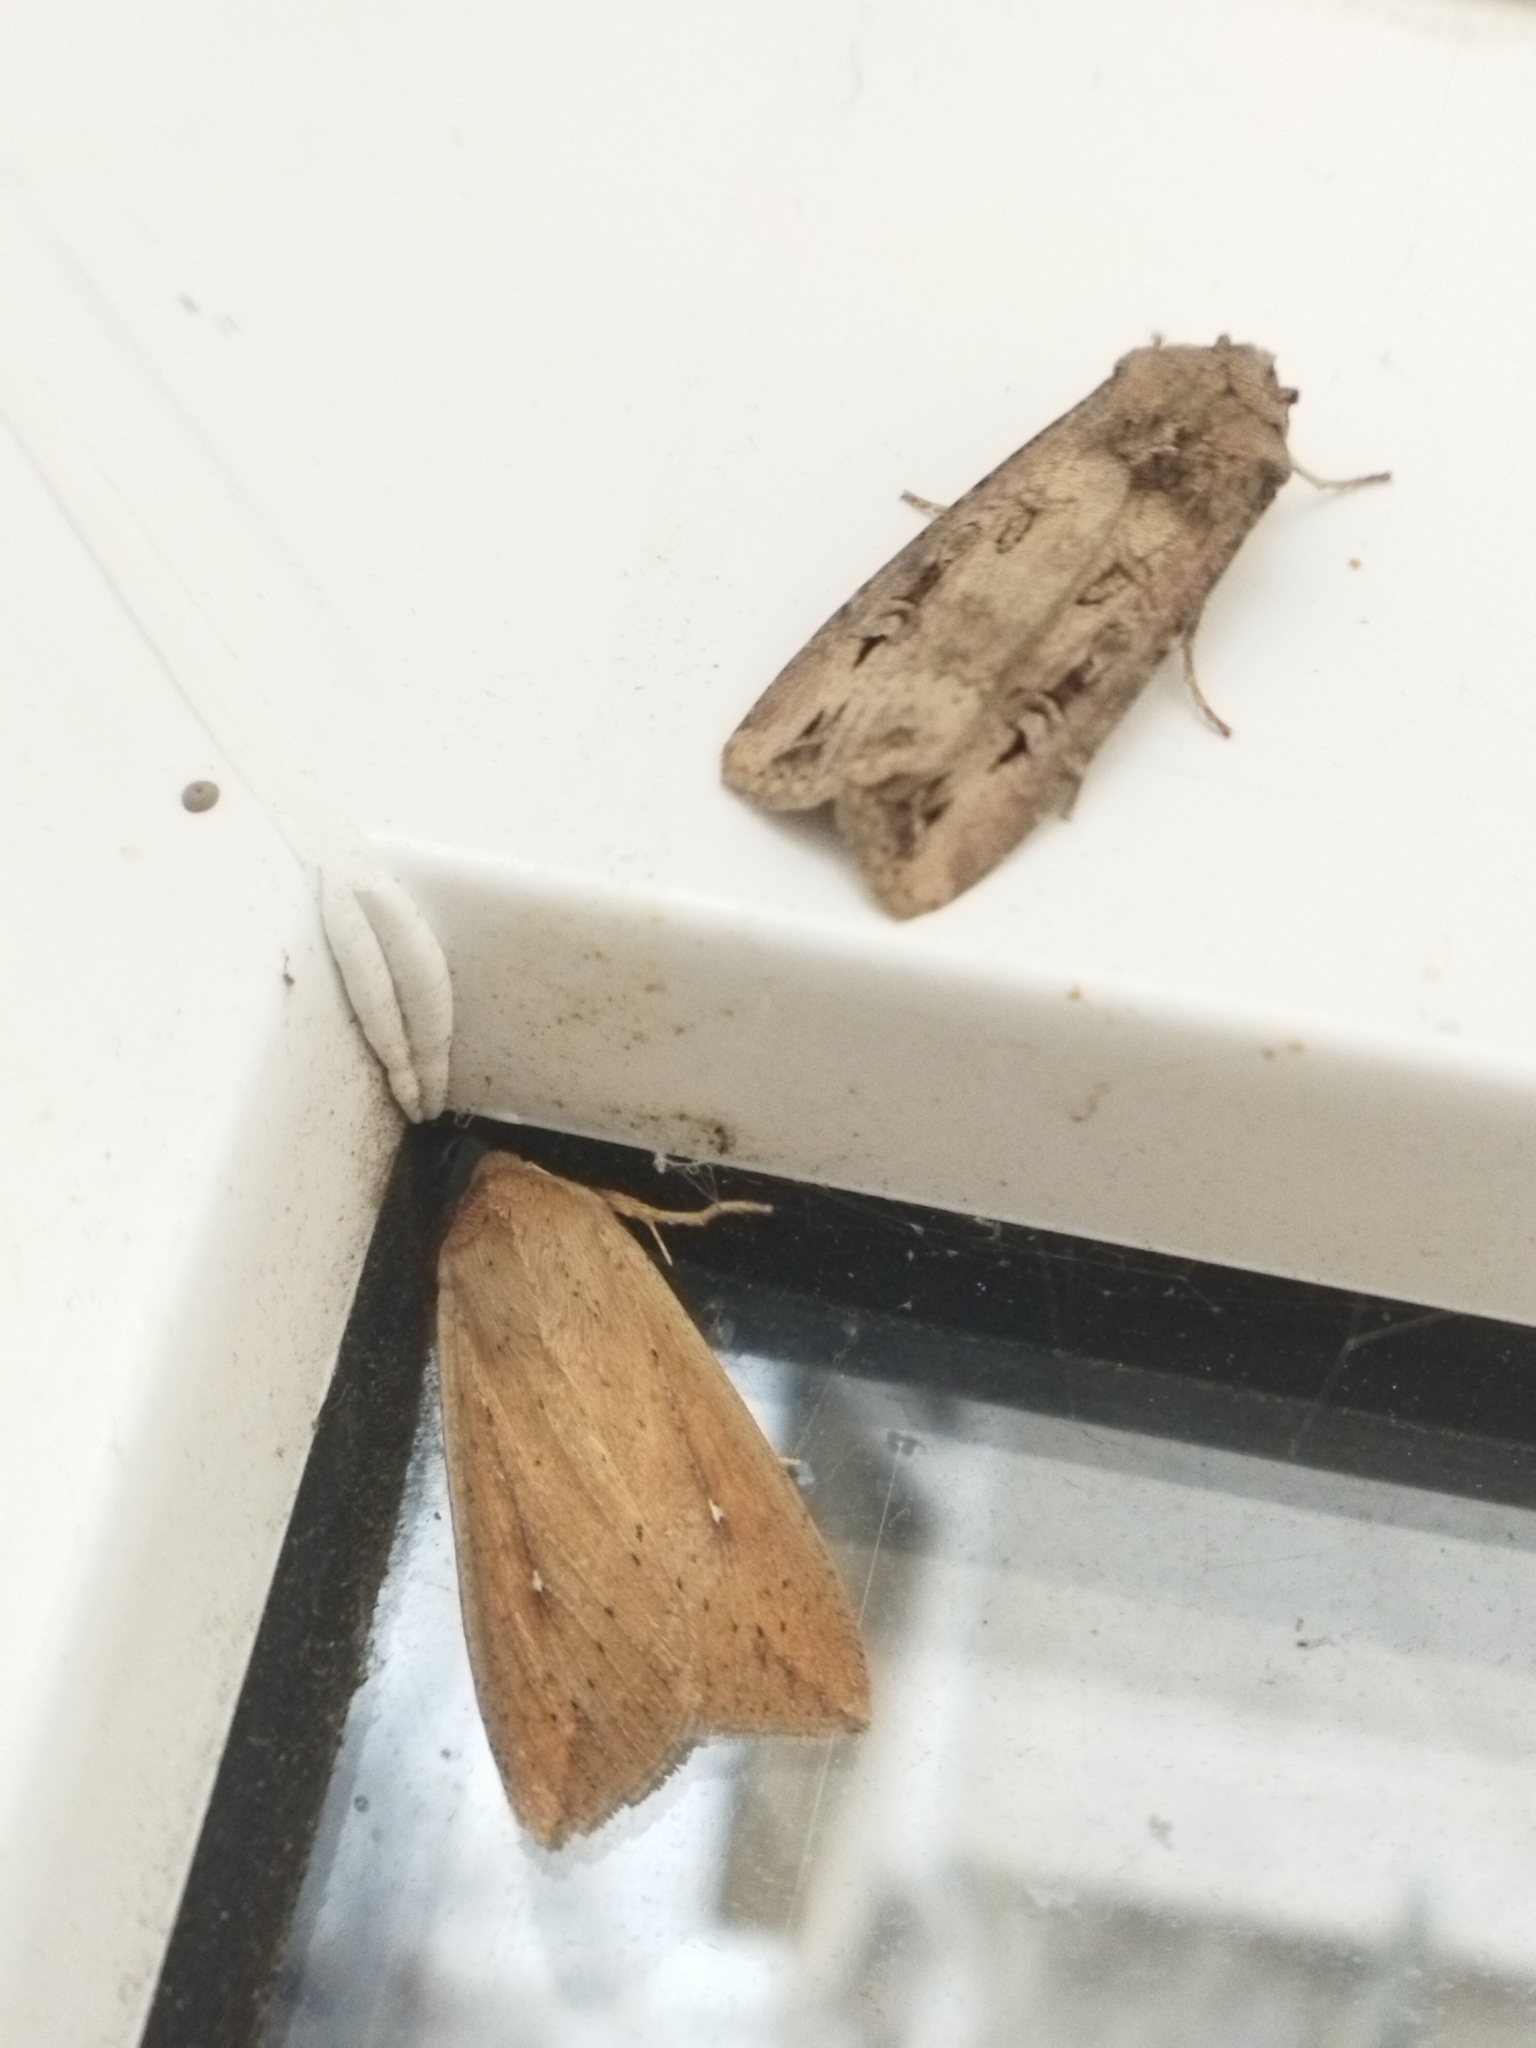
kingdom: Animalia
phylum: Arthropoda
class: Insecta
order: Lepidoptera
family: Noctuidae
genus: Mythimna
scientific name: Mythimna unipuncta
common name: White-speck
